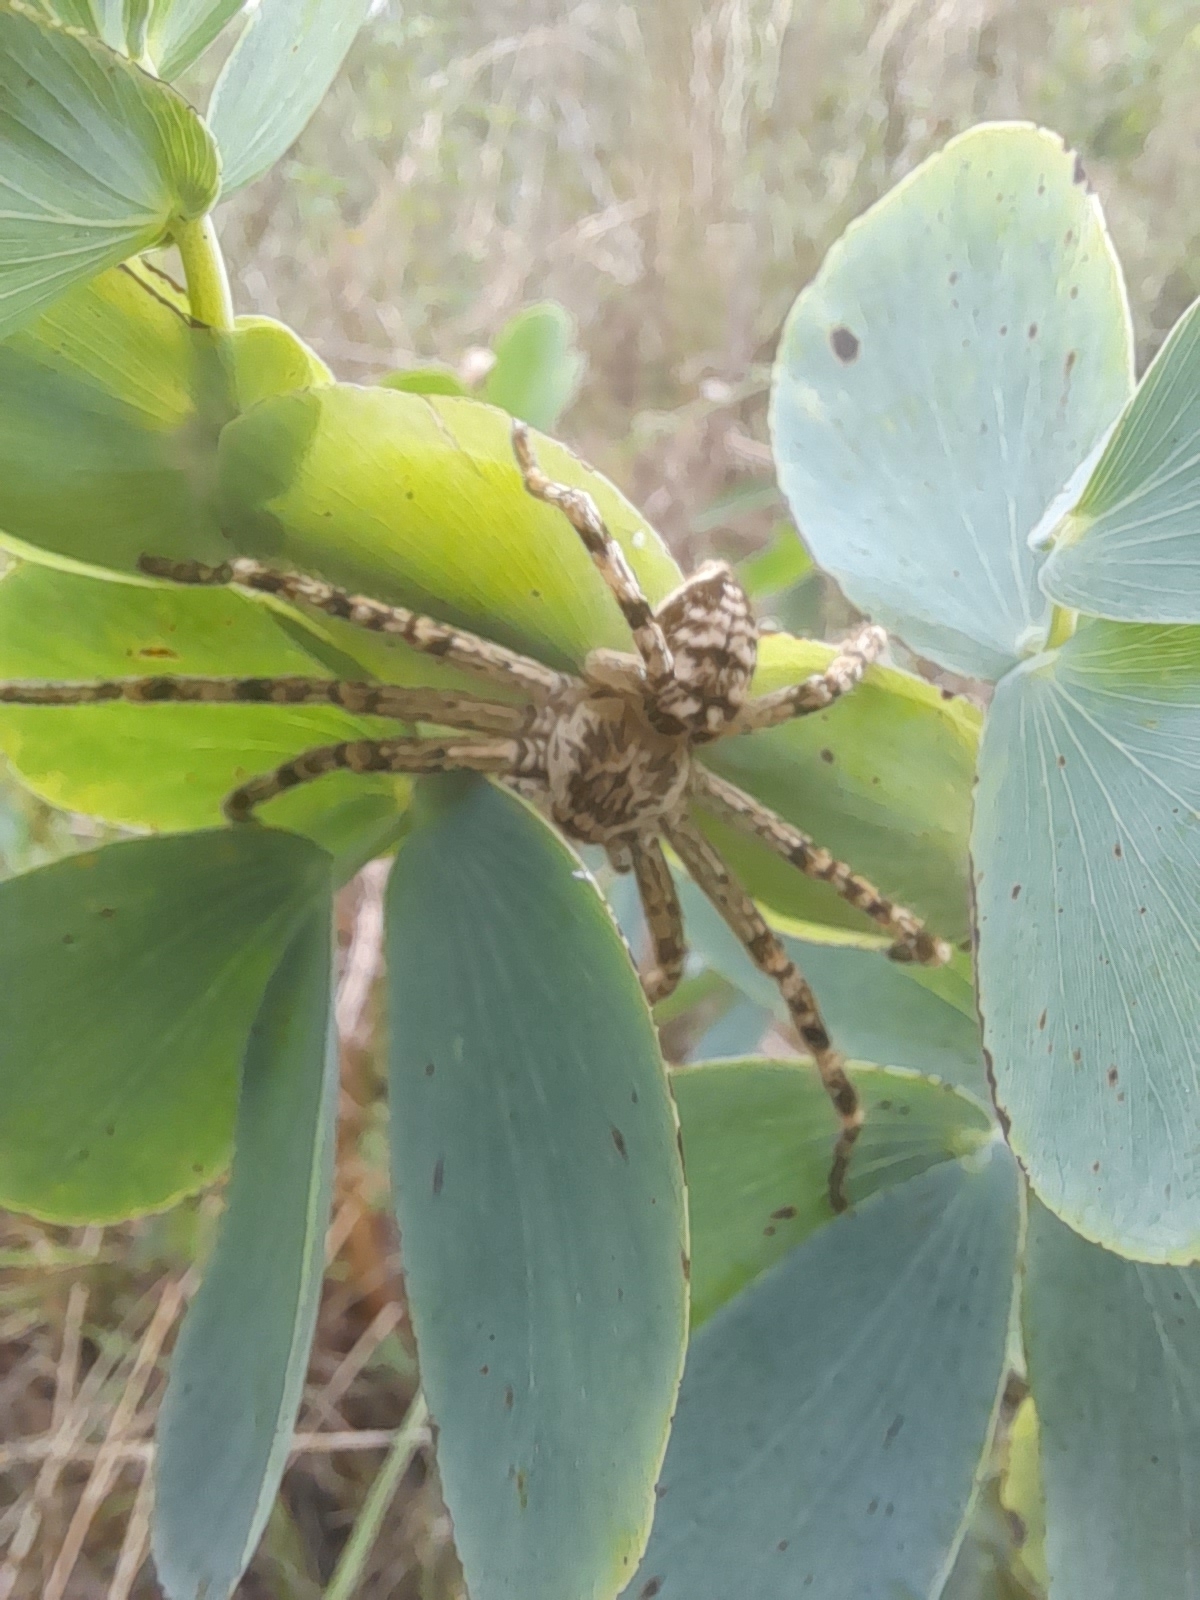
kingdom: Animalia
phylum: Arthropoda
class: Arachnida
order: Araneae
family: Sparassidae
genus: Polybetes
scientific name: Polybetes rapidus
